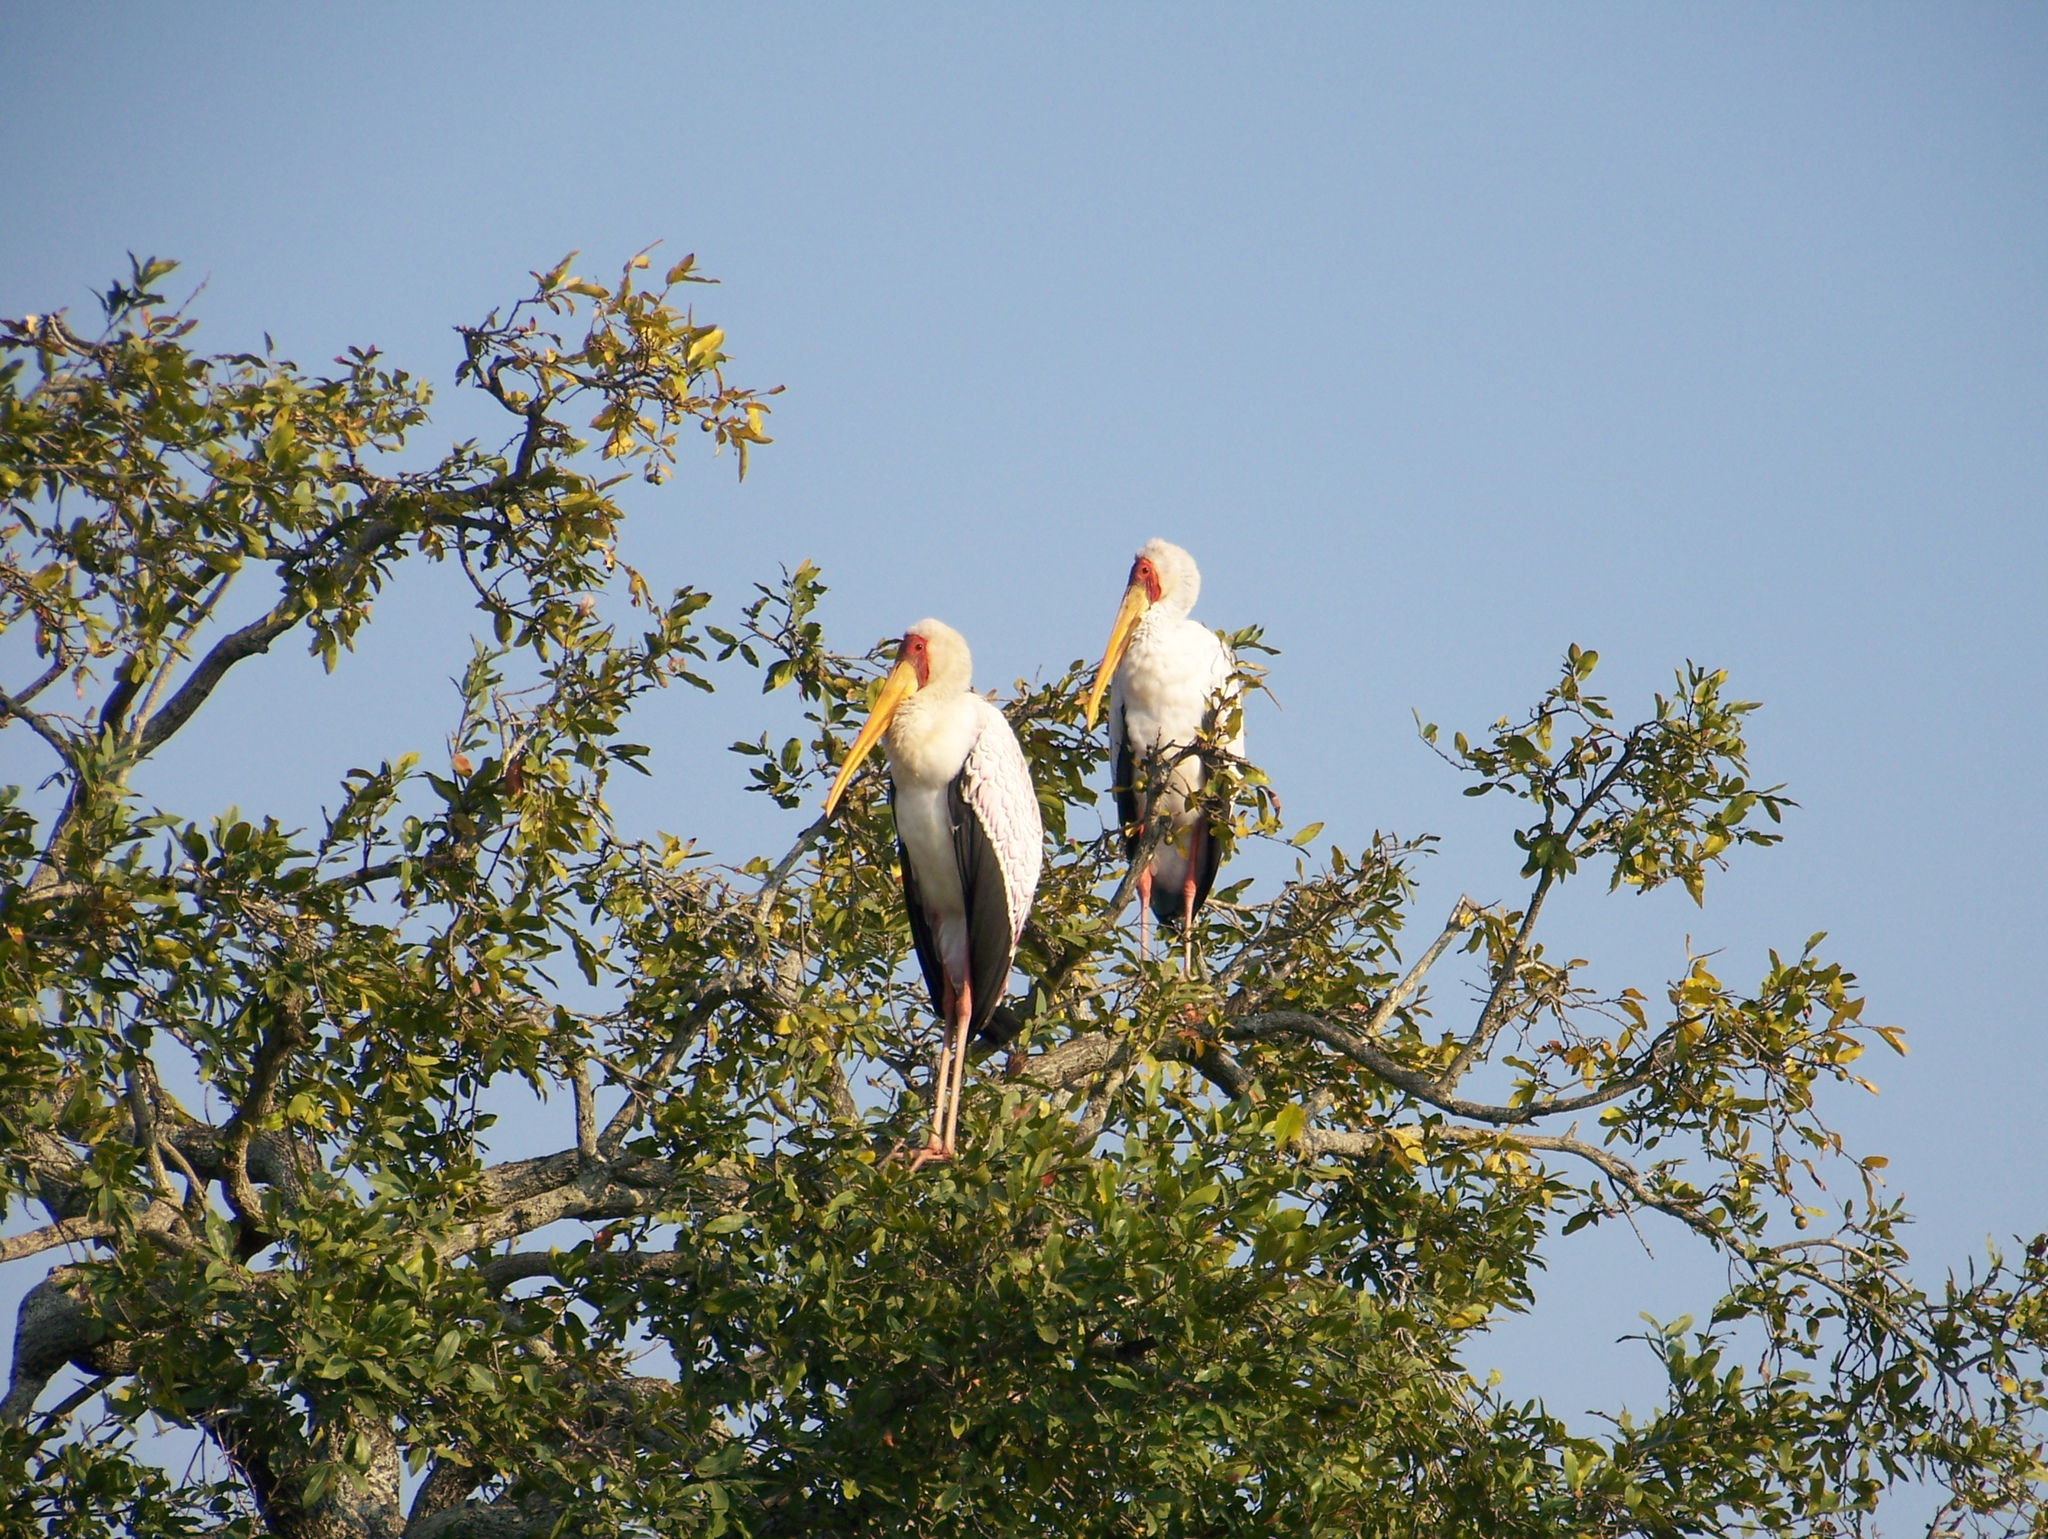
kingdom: Animalia
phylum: Chordata
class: Aves
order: Ciconiiformes
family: Ciconiidae
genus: Mycteria
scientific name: Mycteria ibis
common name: Yellow-billed stork
